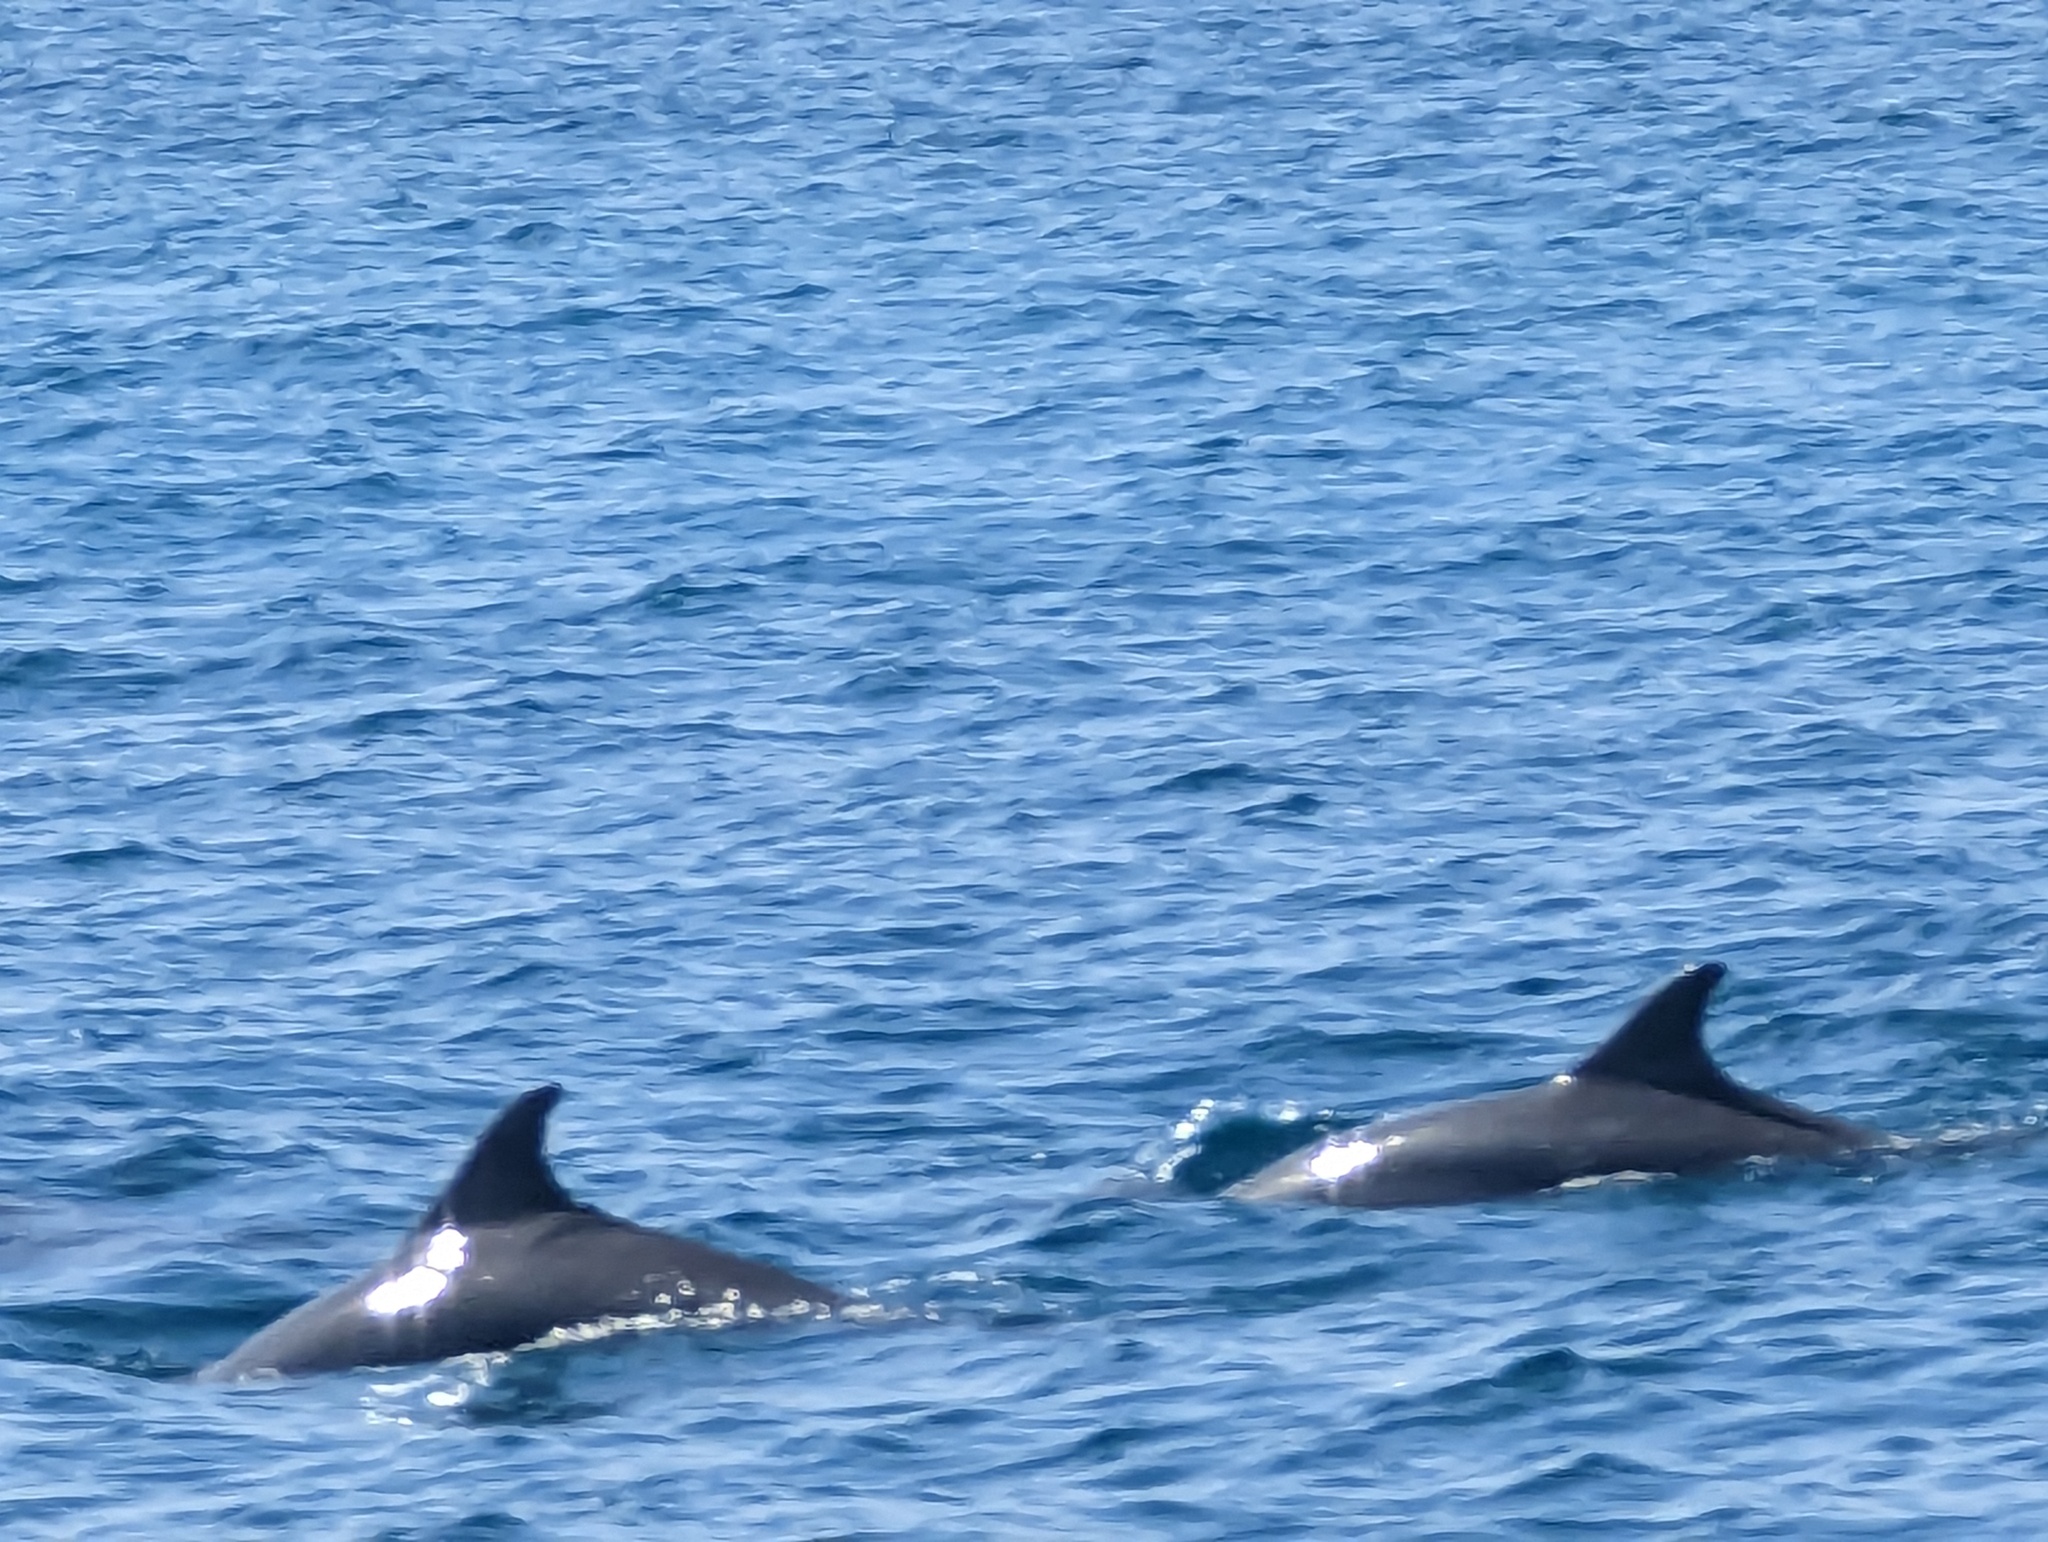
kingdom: Animalia
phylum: Chordata
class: Mammalia
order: Cetacea
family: Delphinidae
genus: Tursiops
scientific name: Tursiops truncatus
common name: Bottlenose dolphin
